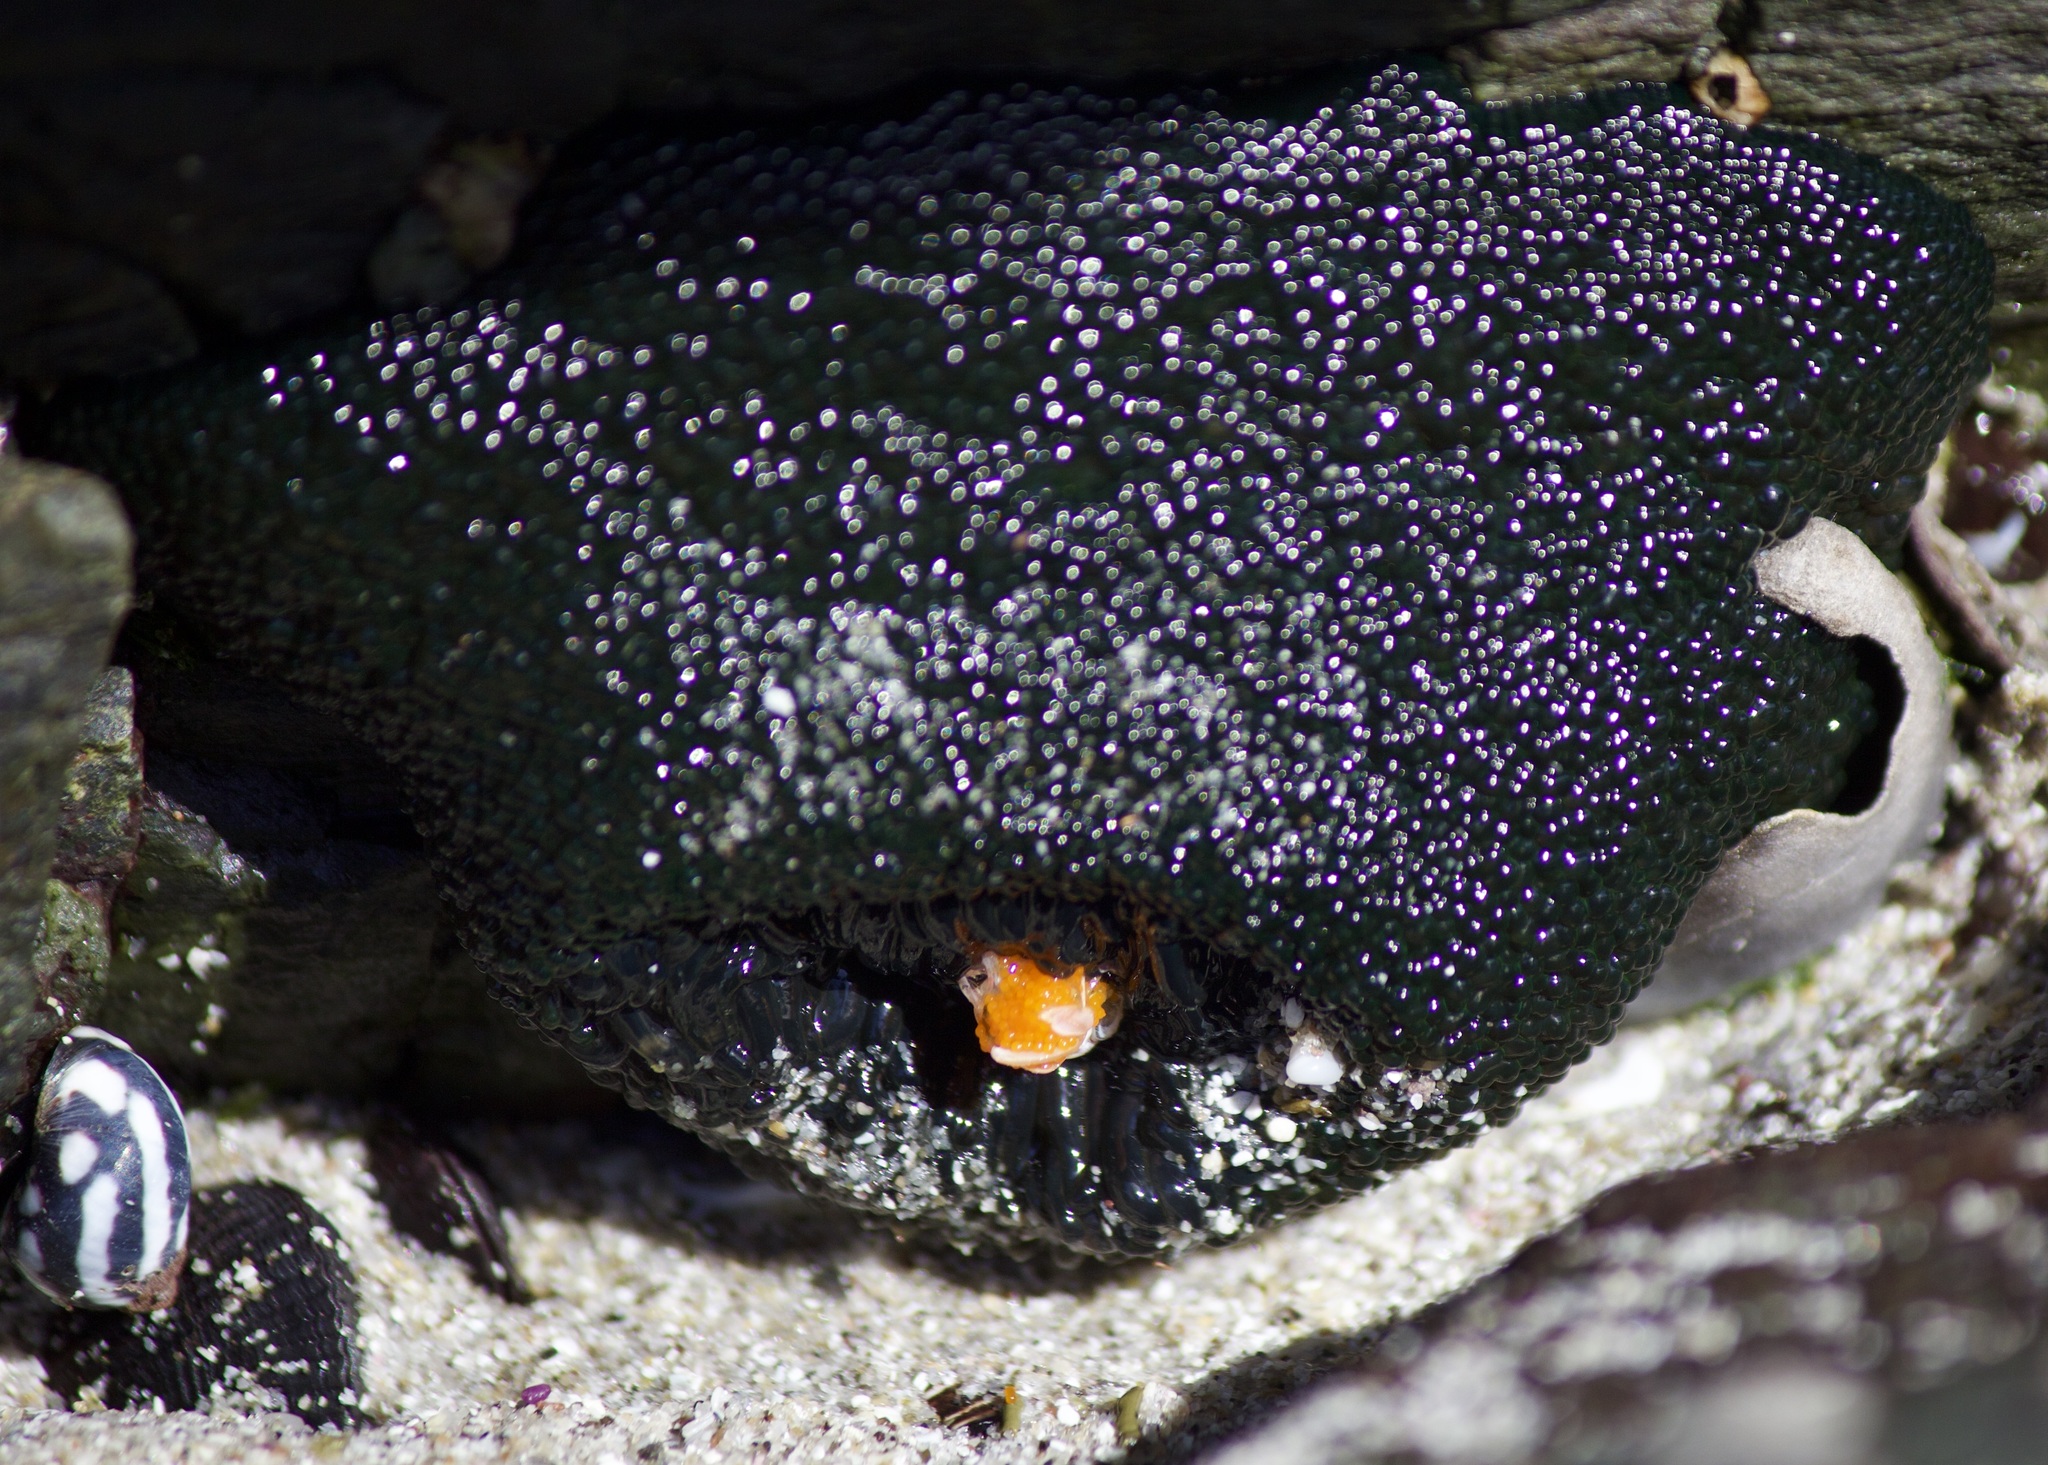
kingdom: Animalia
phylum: Cnidaria
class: Anthozoa
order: Actiniaria
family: Actiniidae
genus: Phymactis
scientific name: Phymactis papillosa
